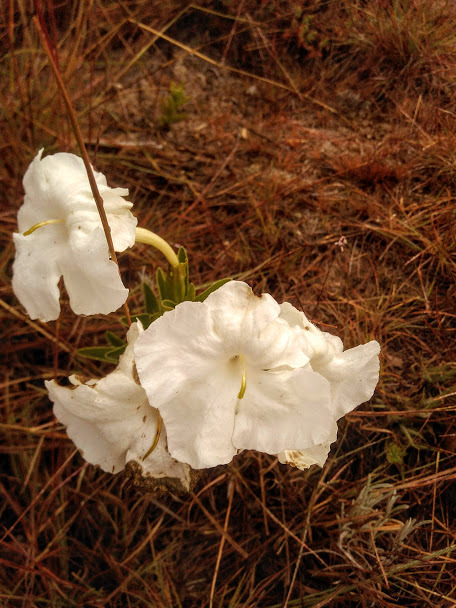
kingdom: Plantae
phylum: Tracheophyta
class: Magnoliopsida
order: Lamiales
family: Orobanchaceae
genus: Escobedia
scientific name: Escobedia grandiflora
